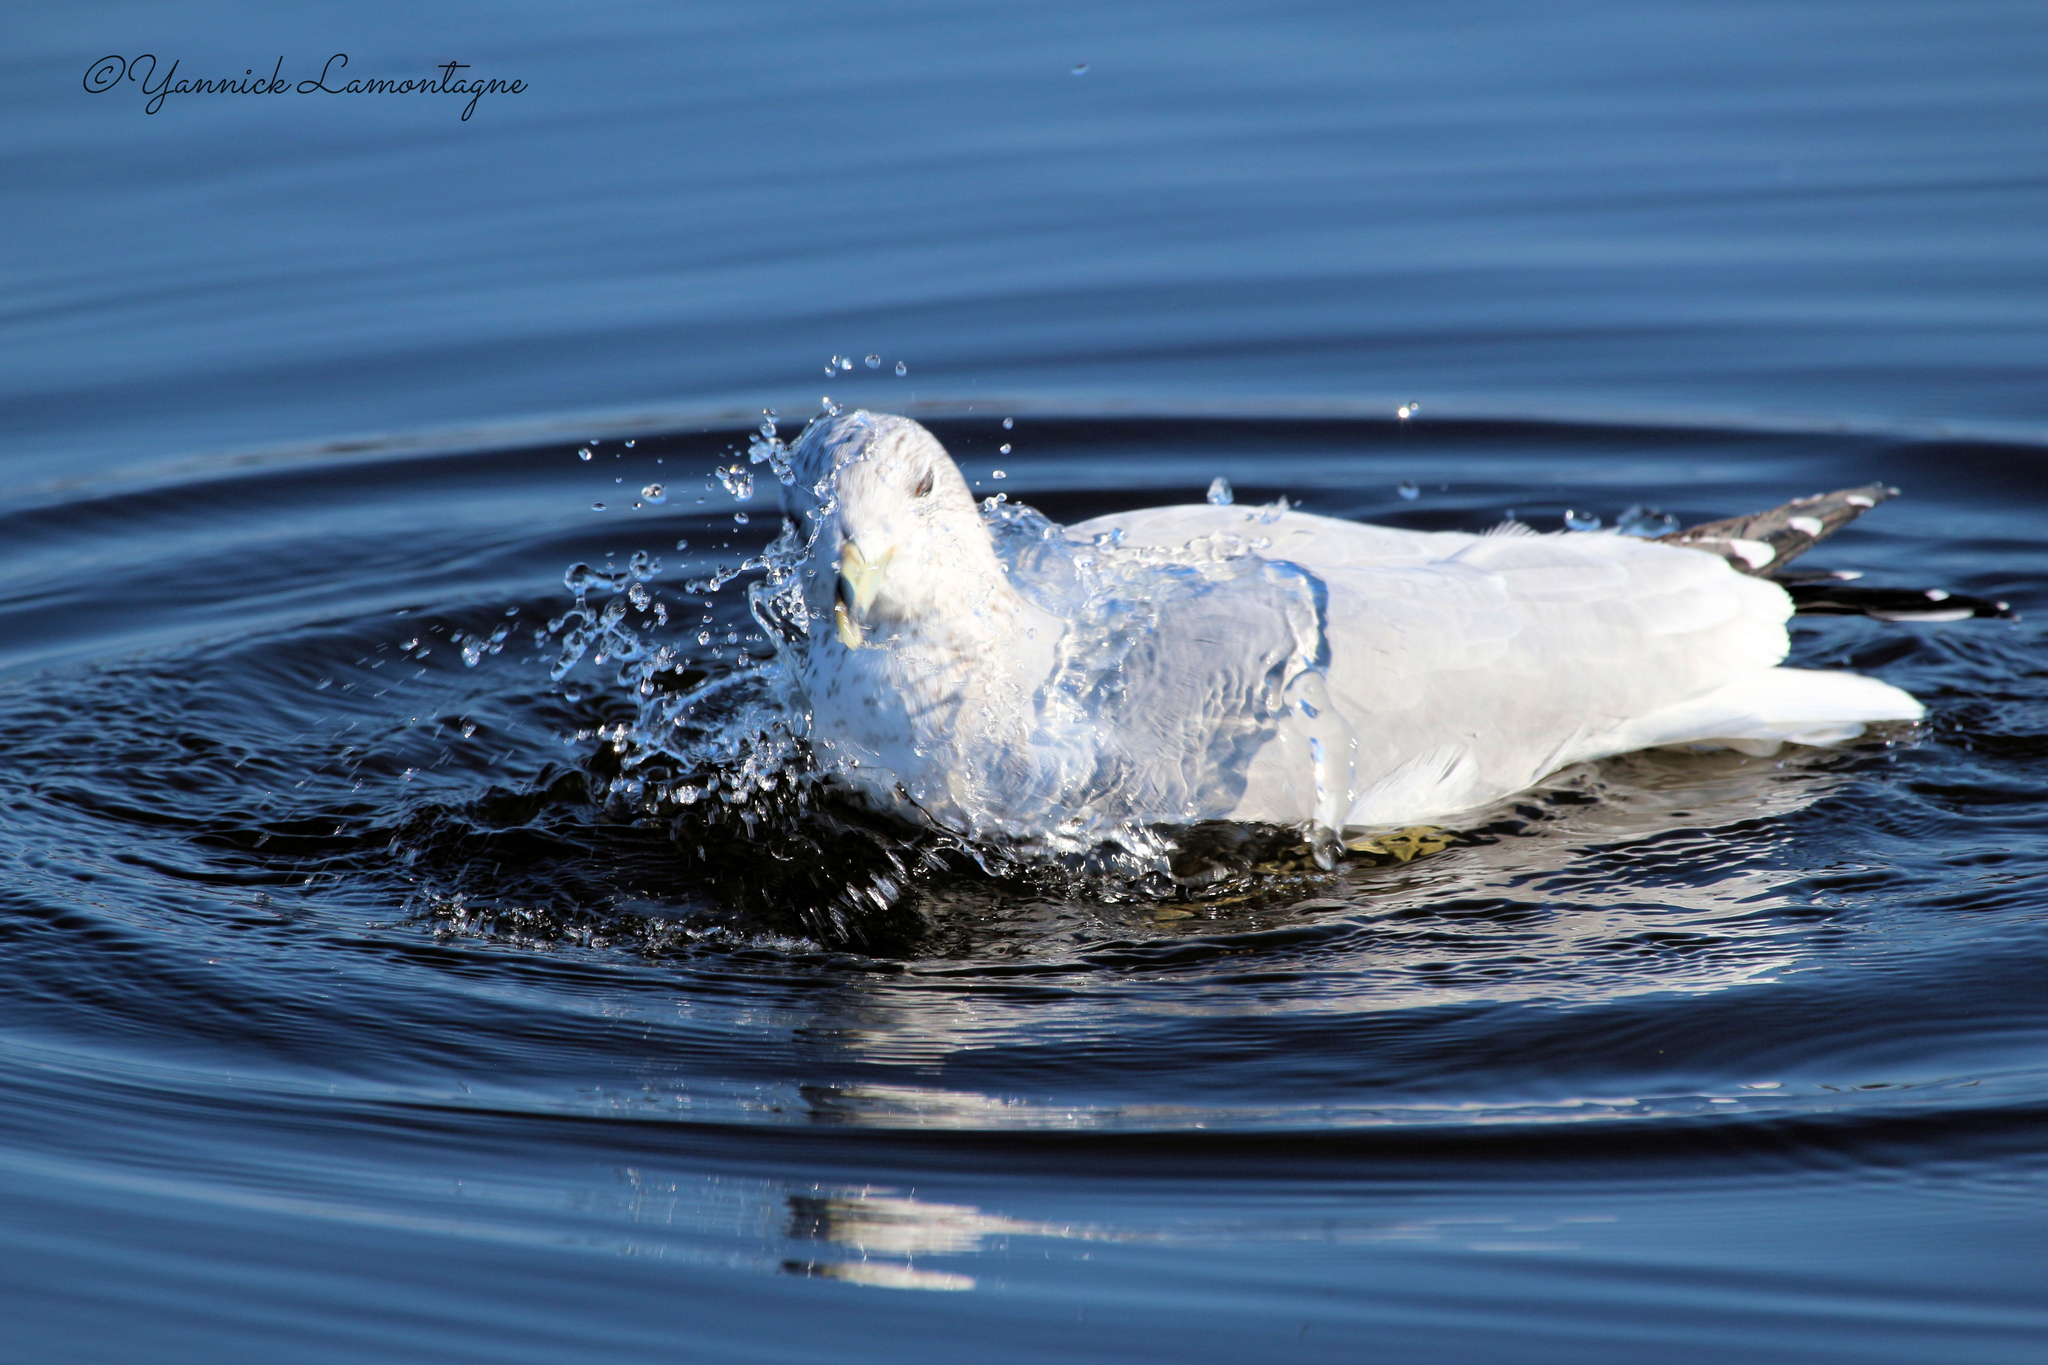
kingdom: Animalia
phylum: Chordata
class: Aves
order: Charadriiformes
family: Laridae
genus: Larus
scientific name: Larus delawarensis
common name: Ring-billed gull
